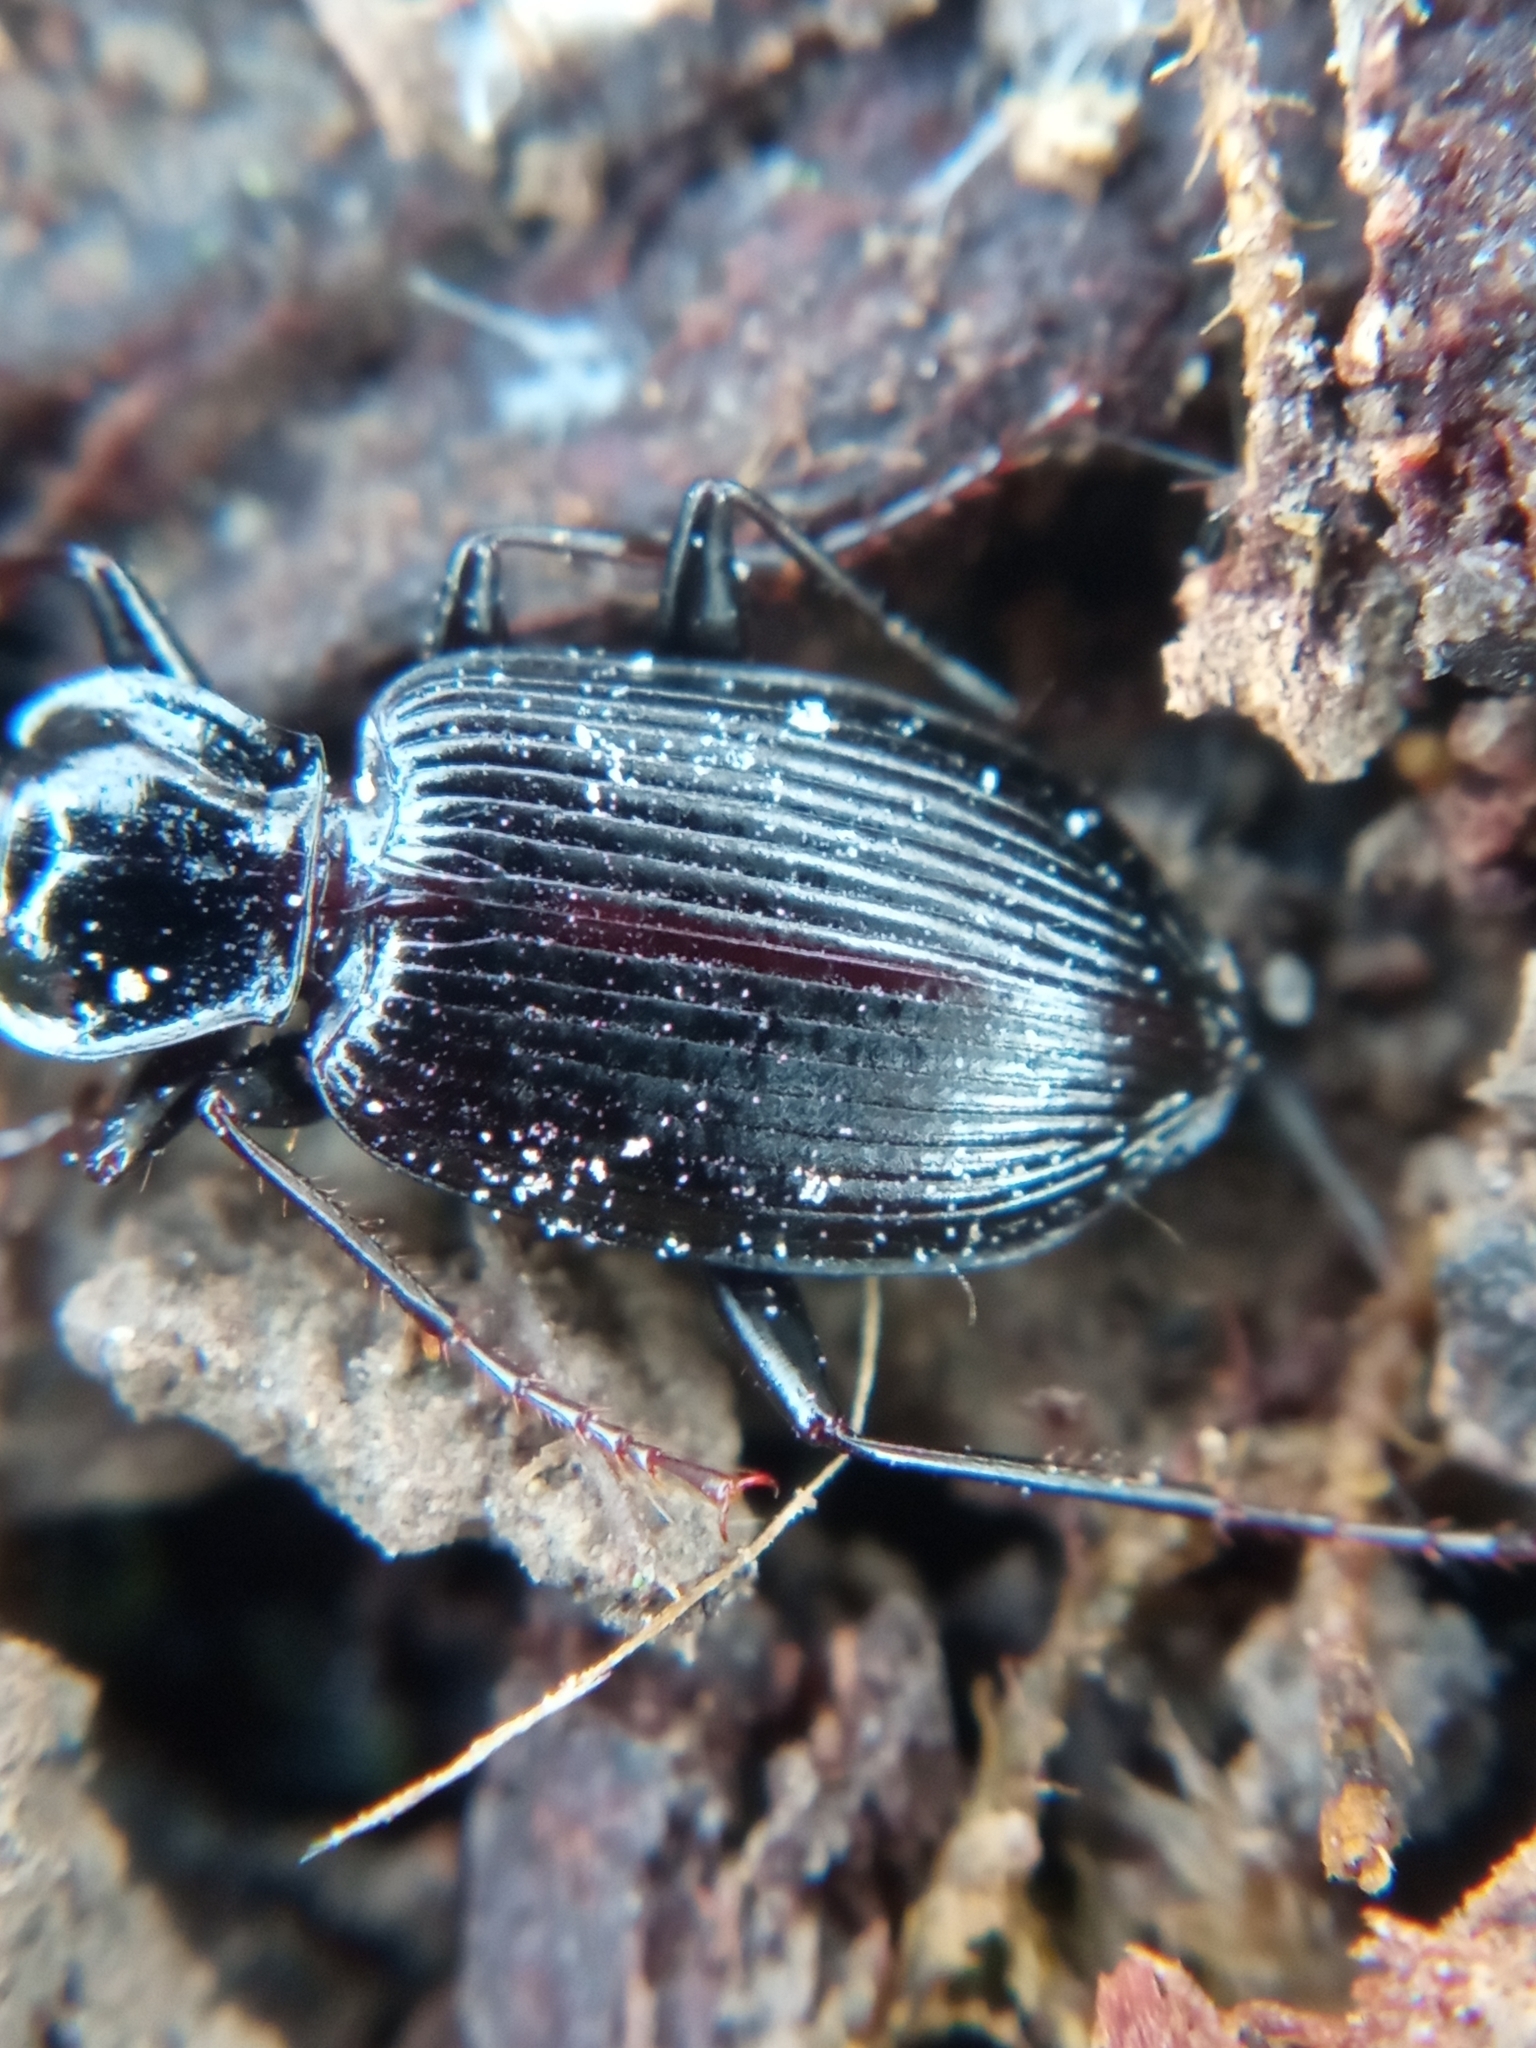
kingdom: Animalia
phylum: Arthropoda
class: Insecta
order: Coleoptera
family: Carabidae
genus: Platynus
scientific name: Platynus assimilis
